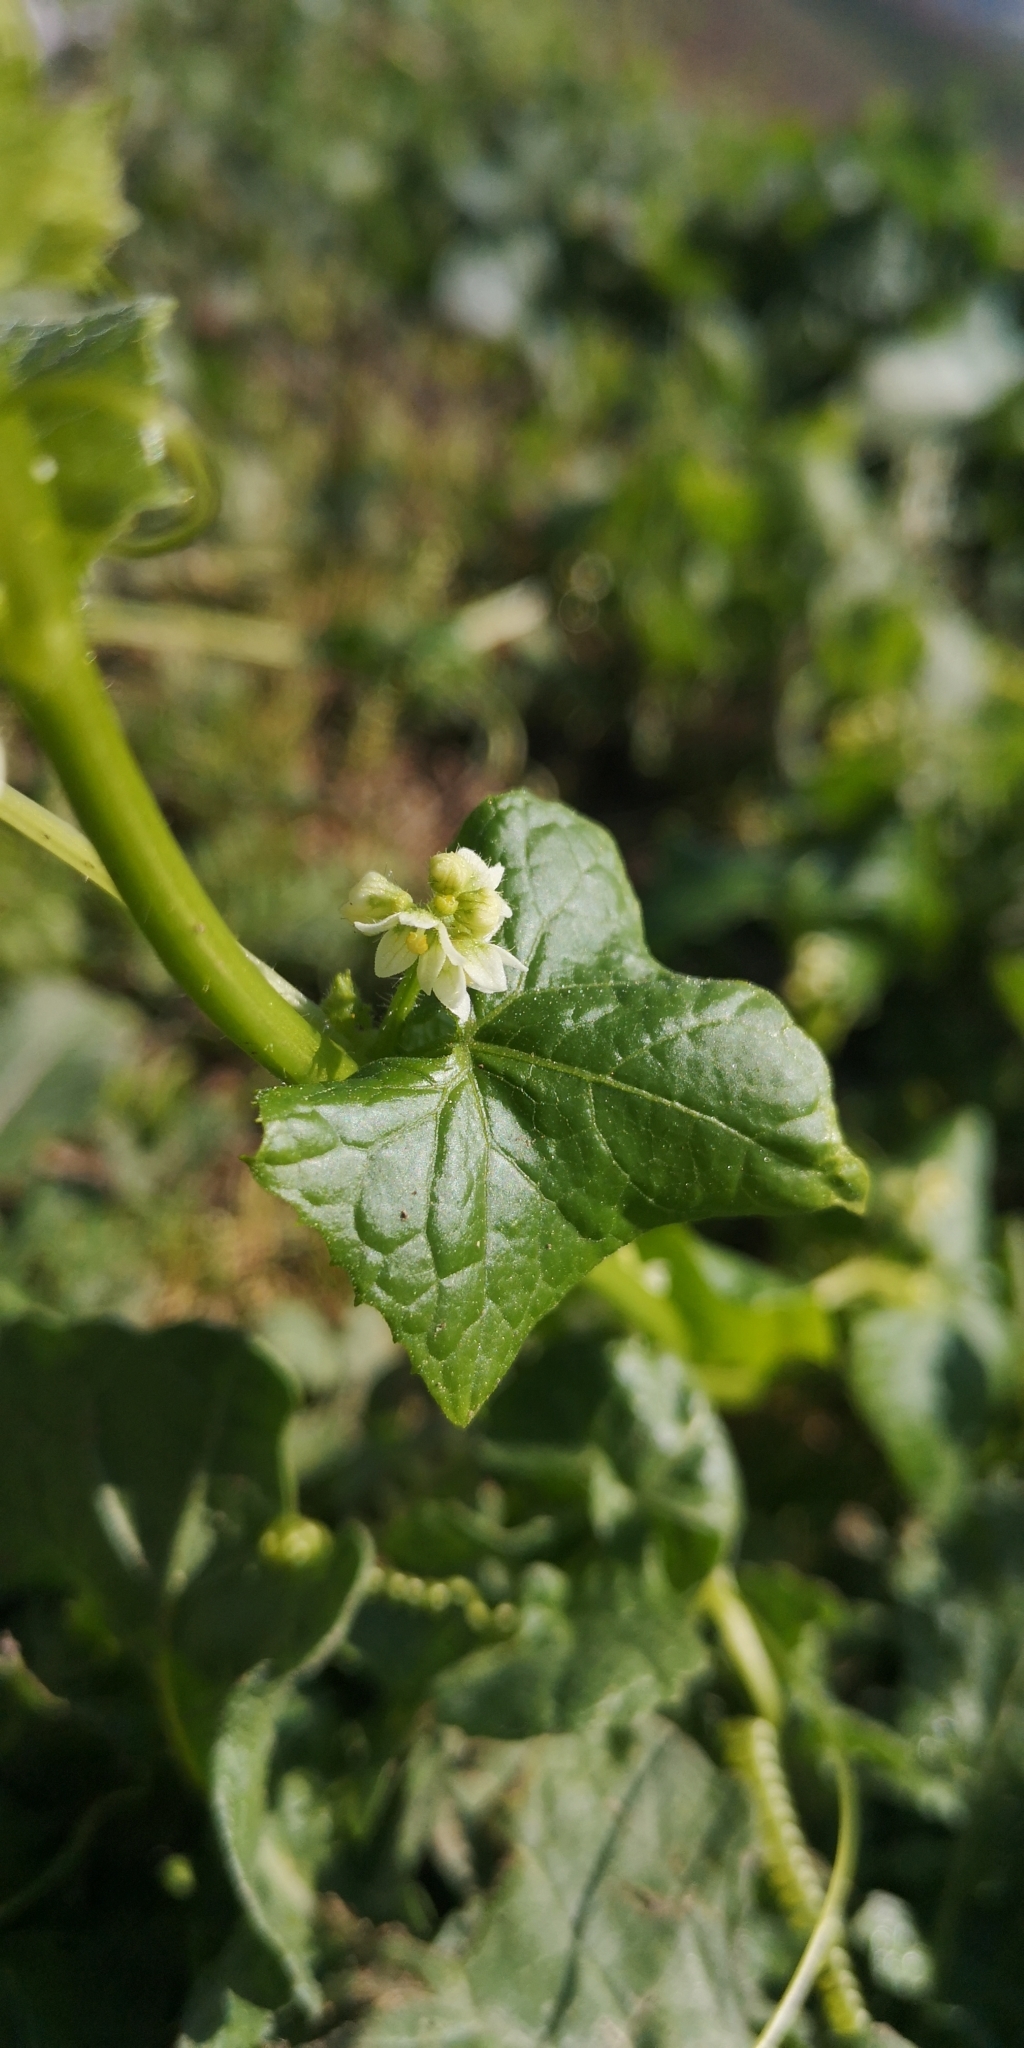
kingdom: Plantae
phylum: Tracheophyta
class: Magnoliopsida
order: Cucurbitales
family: Cucurbitaceae
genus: Sicyos
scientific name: Sicyos baderoa
